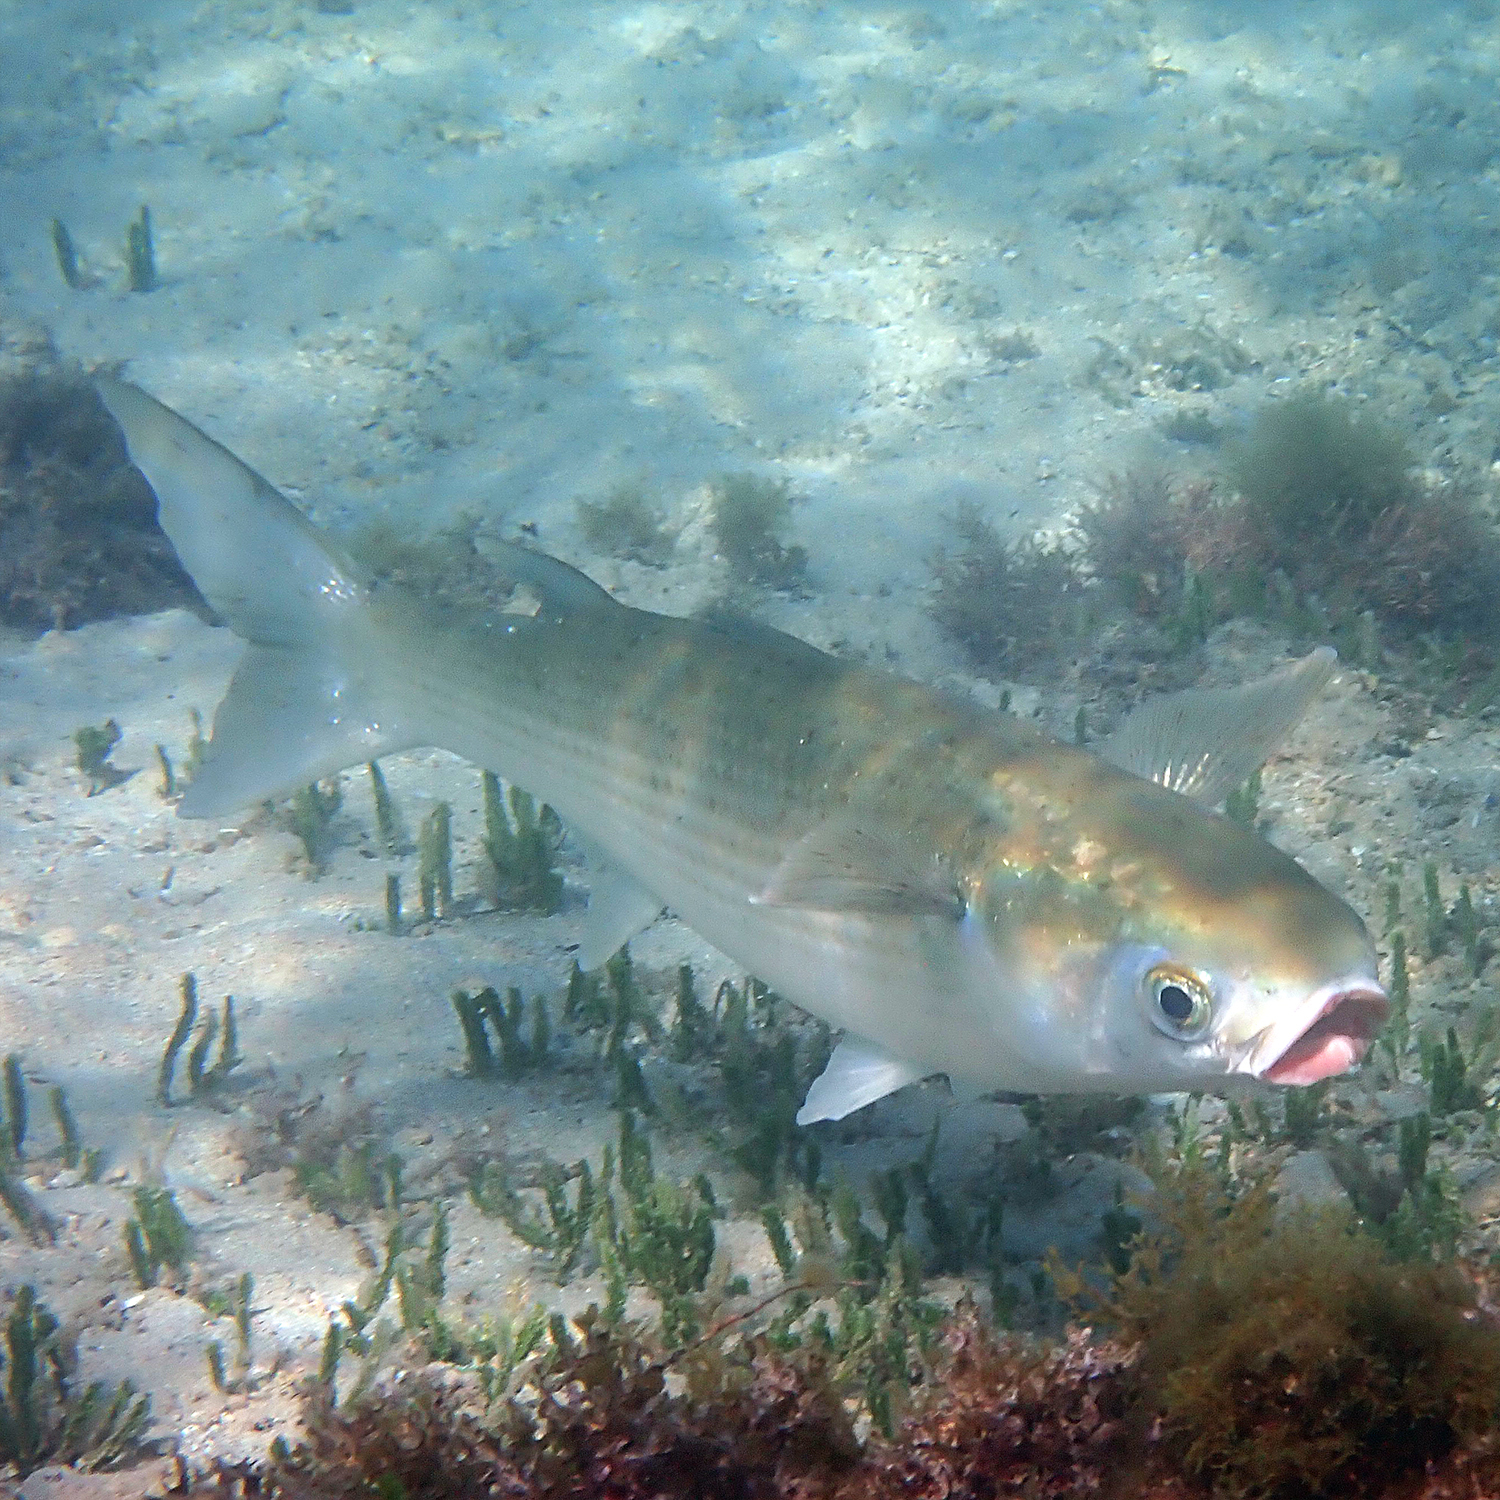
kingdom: Animalia
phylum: Chordata
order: Mugiliformes
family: Mugilidae
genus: Mugil
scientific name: Mugil cephalus
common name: Grey mullet
